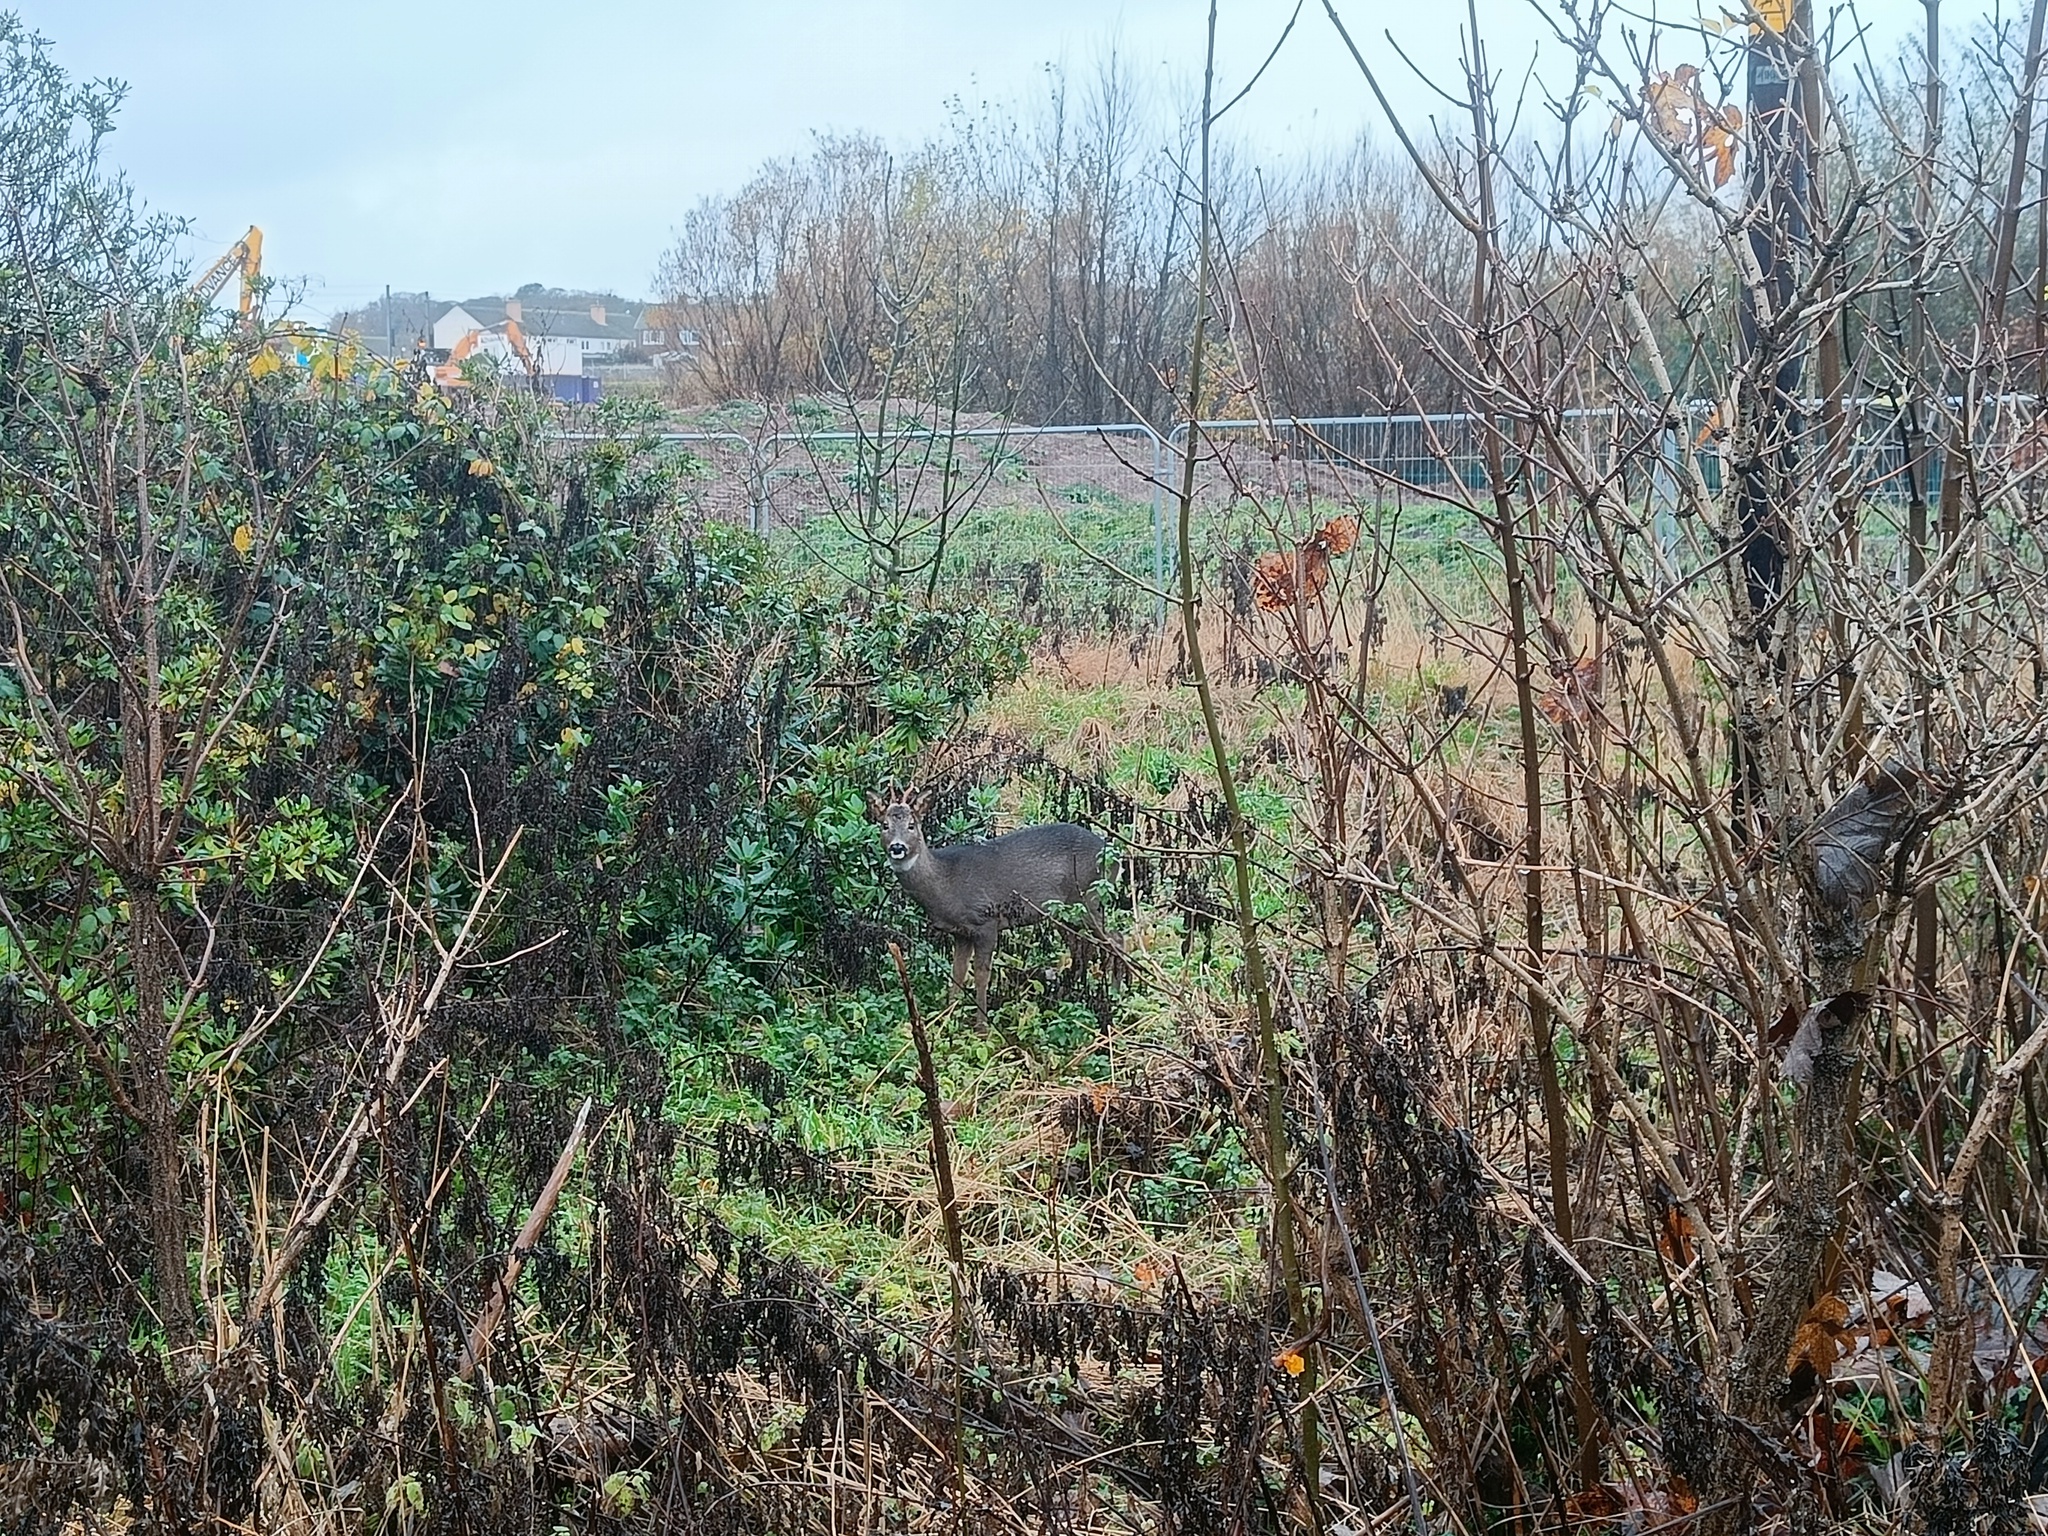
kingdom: Animalia
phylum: Chordata
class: Mammalia
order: Artiodactyla
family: Cervidae
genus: Capreolus
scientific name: Capreolus capreolus
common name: Western roe deer
